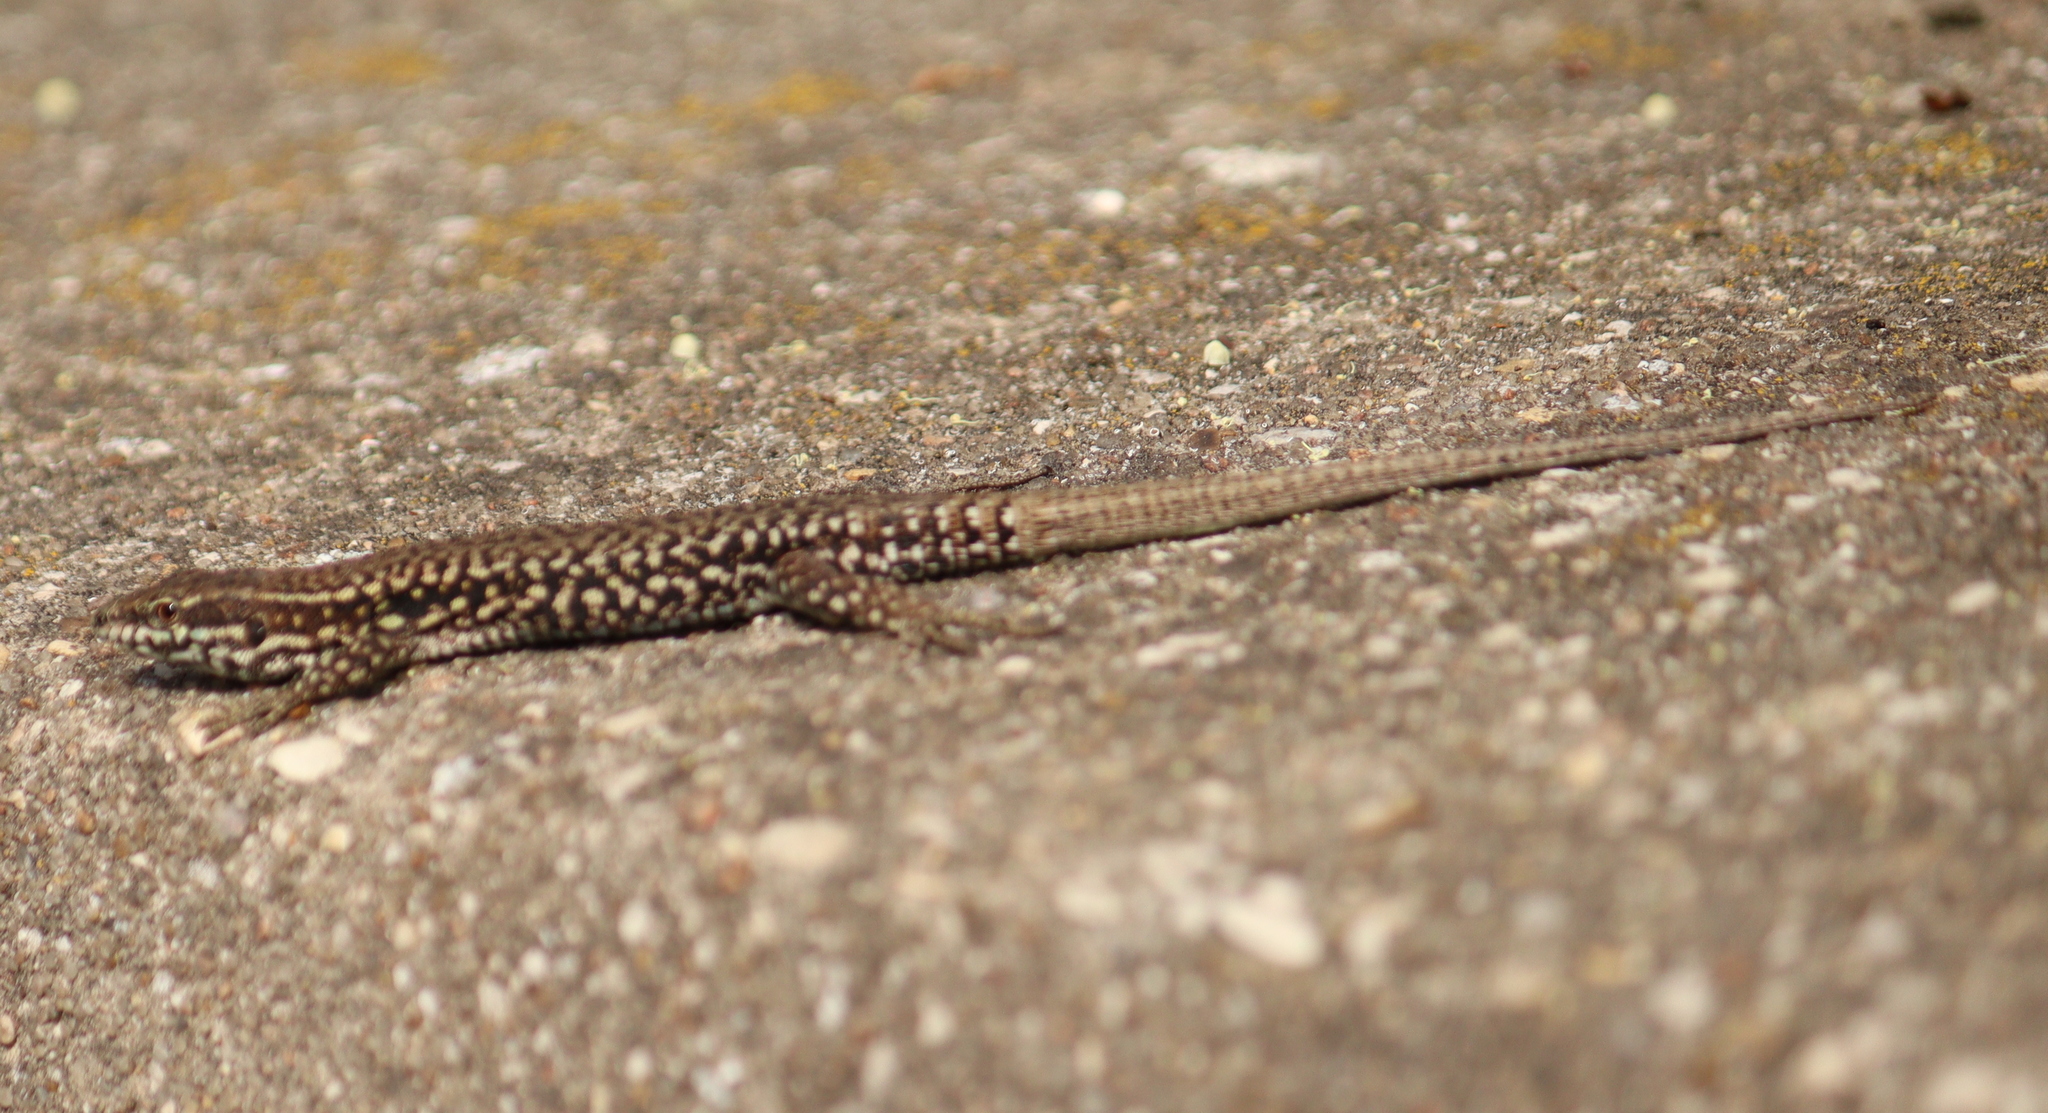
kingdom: Animalia
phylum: Chordata
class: Squamata
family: Lacertidae
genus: Podarcis
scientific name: Podarcis muralis
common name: Common wall lizard
